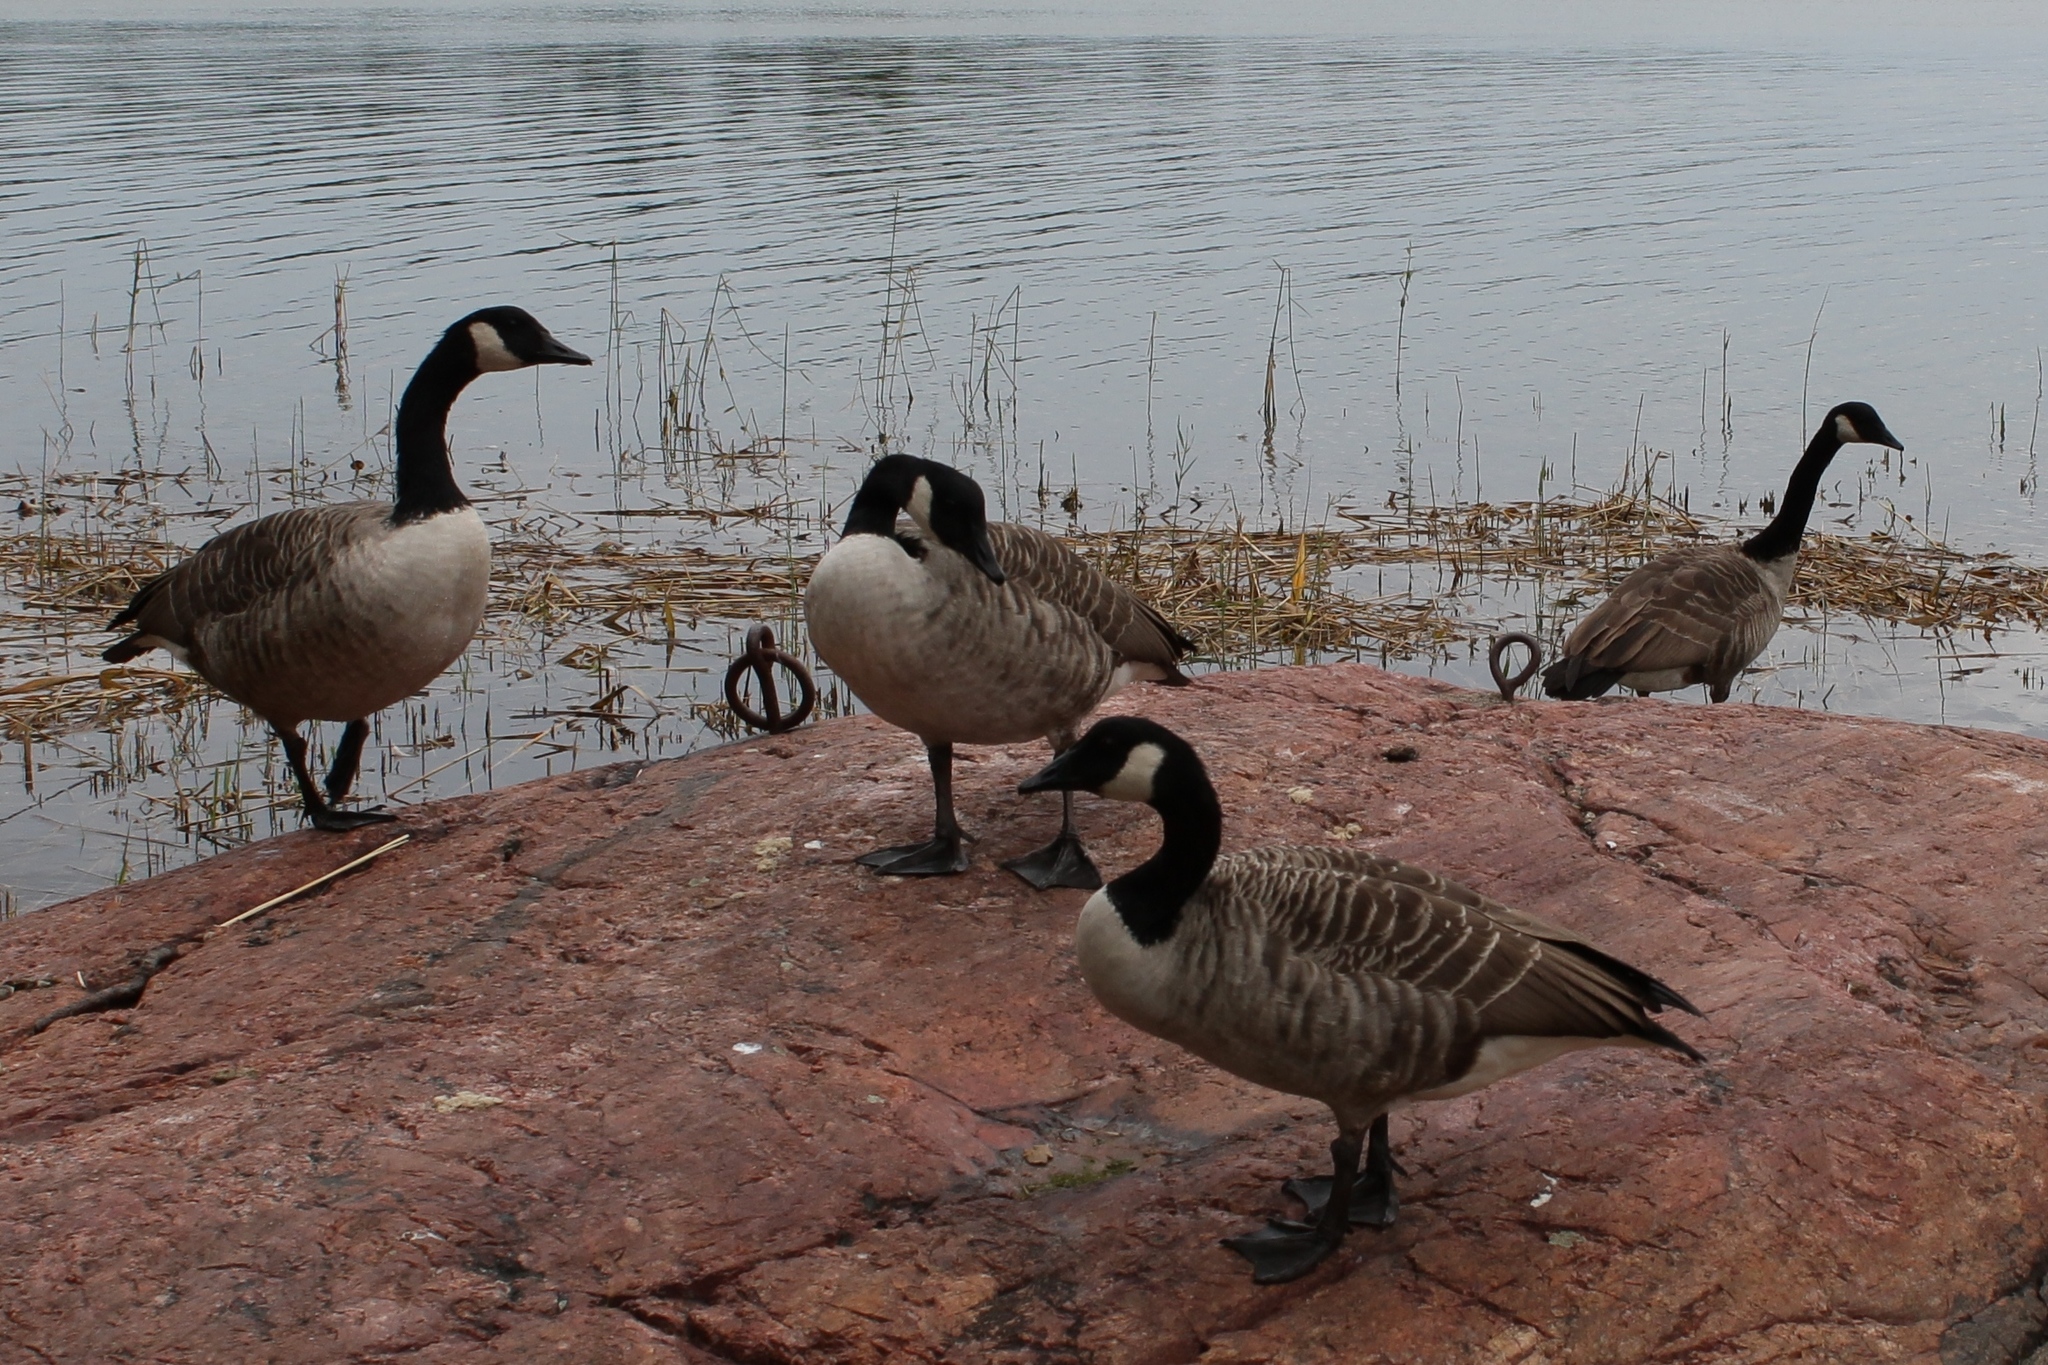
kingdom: Animalia
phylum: Chordata
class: Aves
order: Anseriformes
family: Anatidae
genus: Branta
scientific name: Branta canadensis
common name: Canada goose
